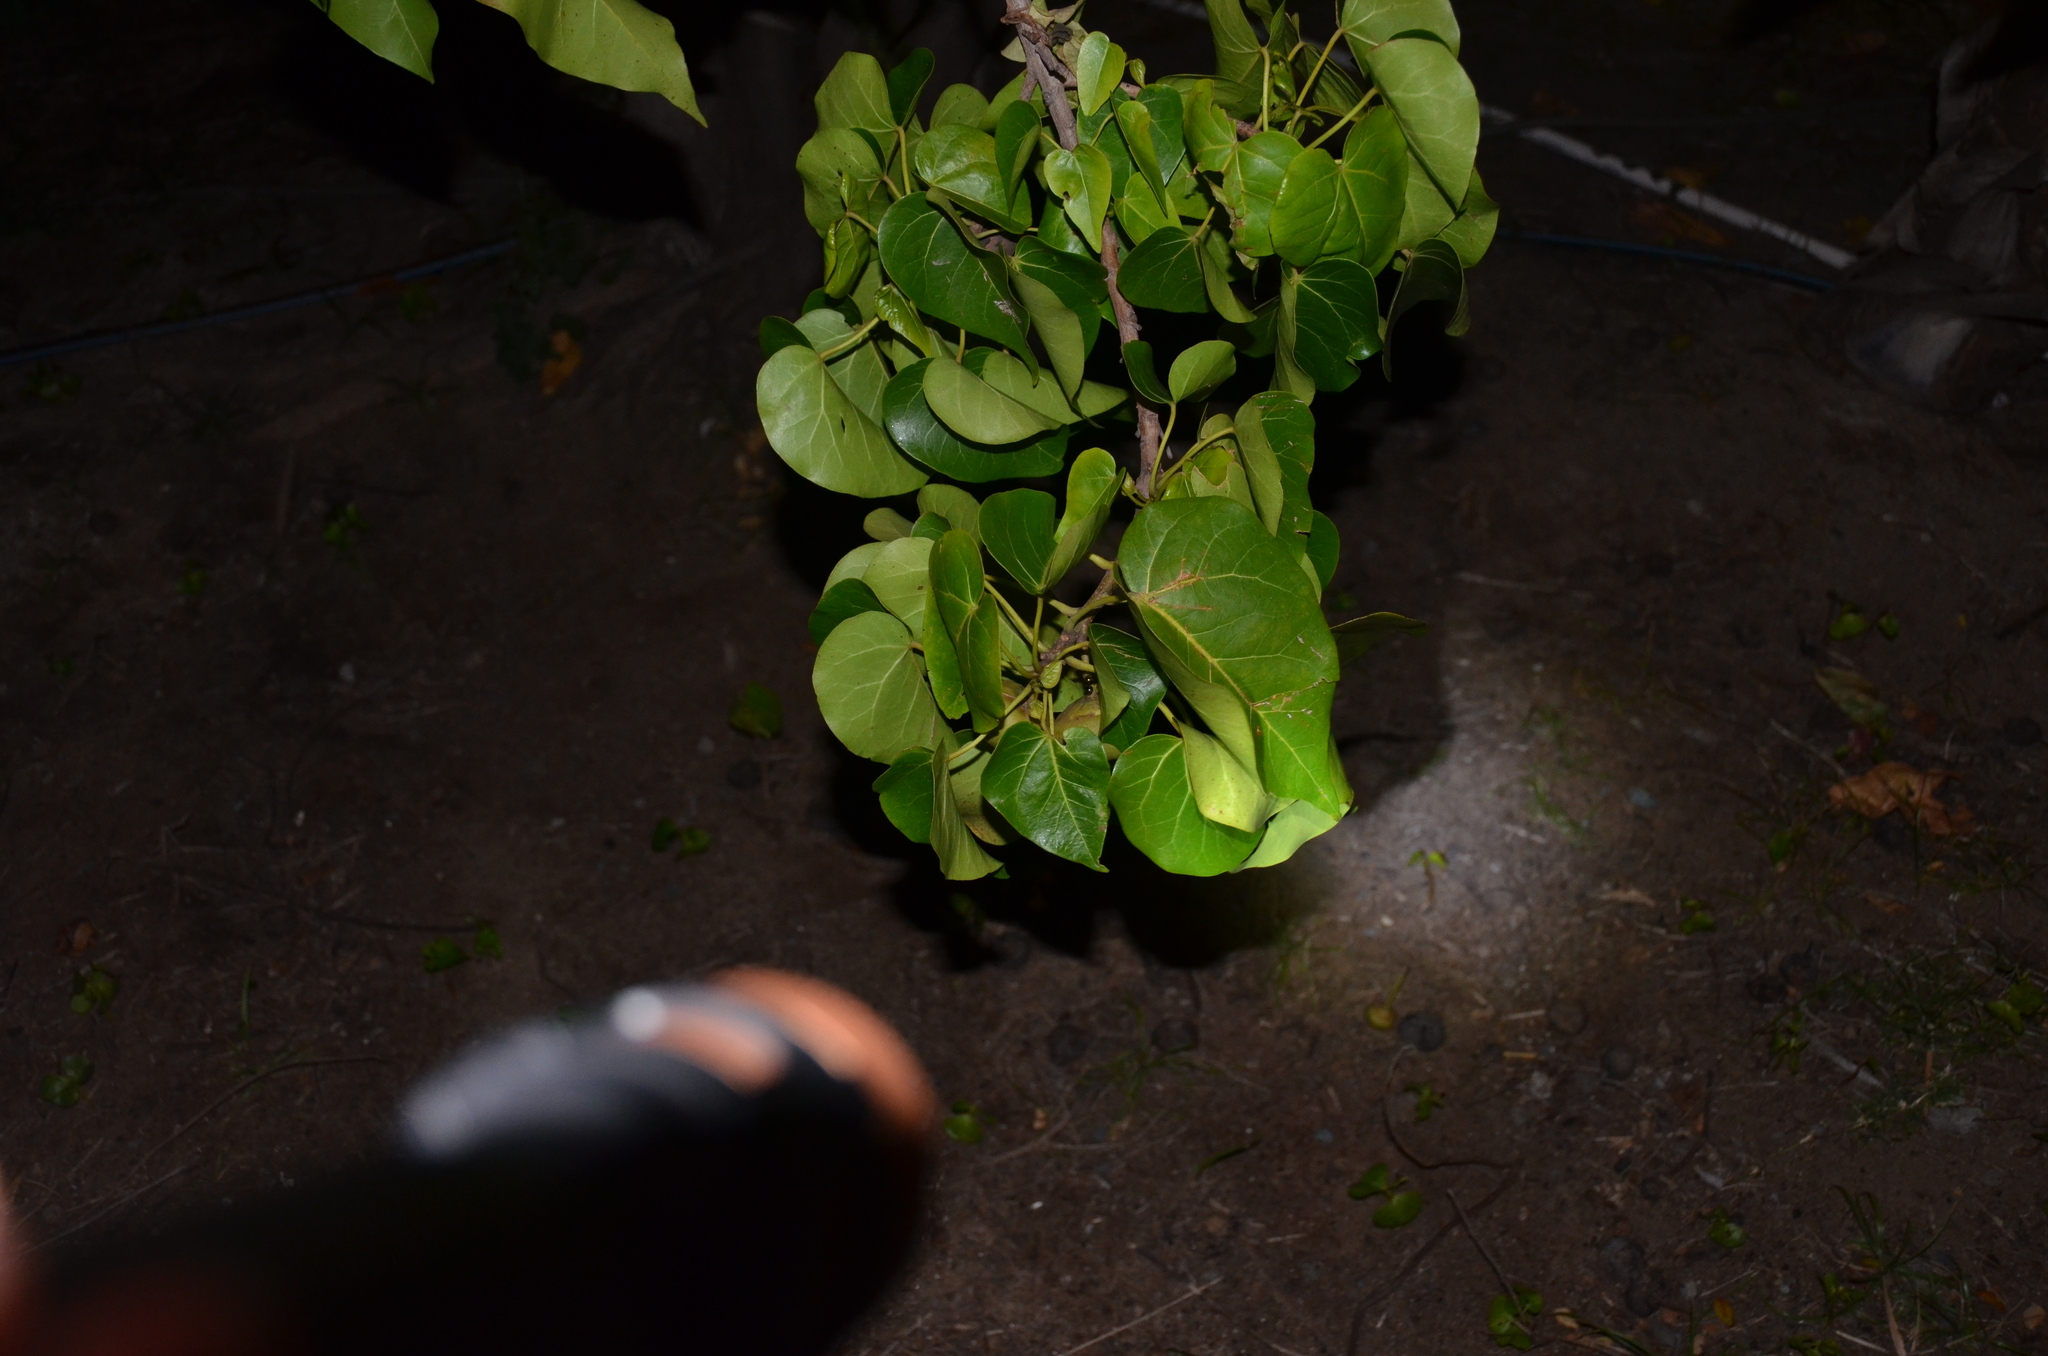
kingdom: Plantae
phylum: Tracheophyta
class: Magnoliopsida
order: Malvales
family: Malvaceae
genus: Thespesia
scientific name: Thespesia populnea
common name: Seaside mahoe
